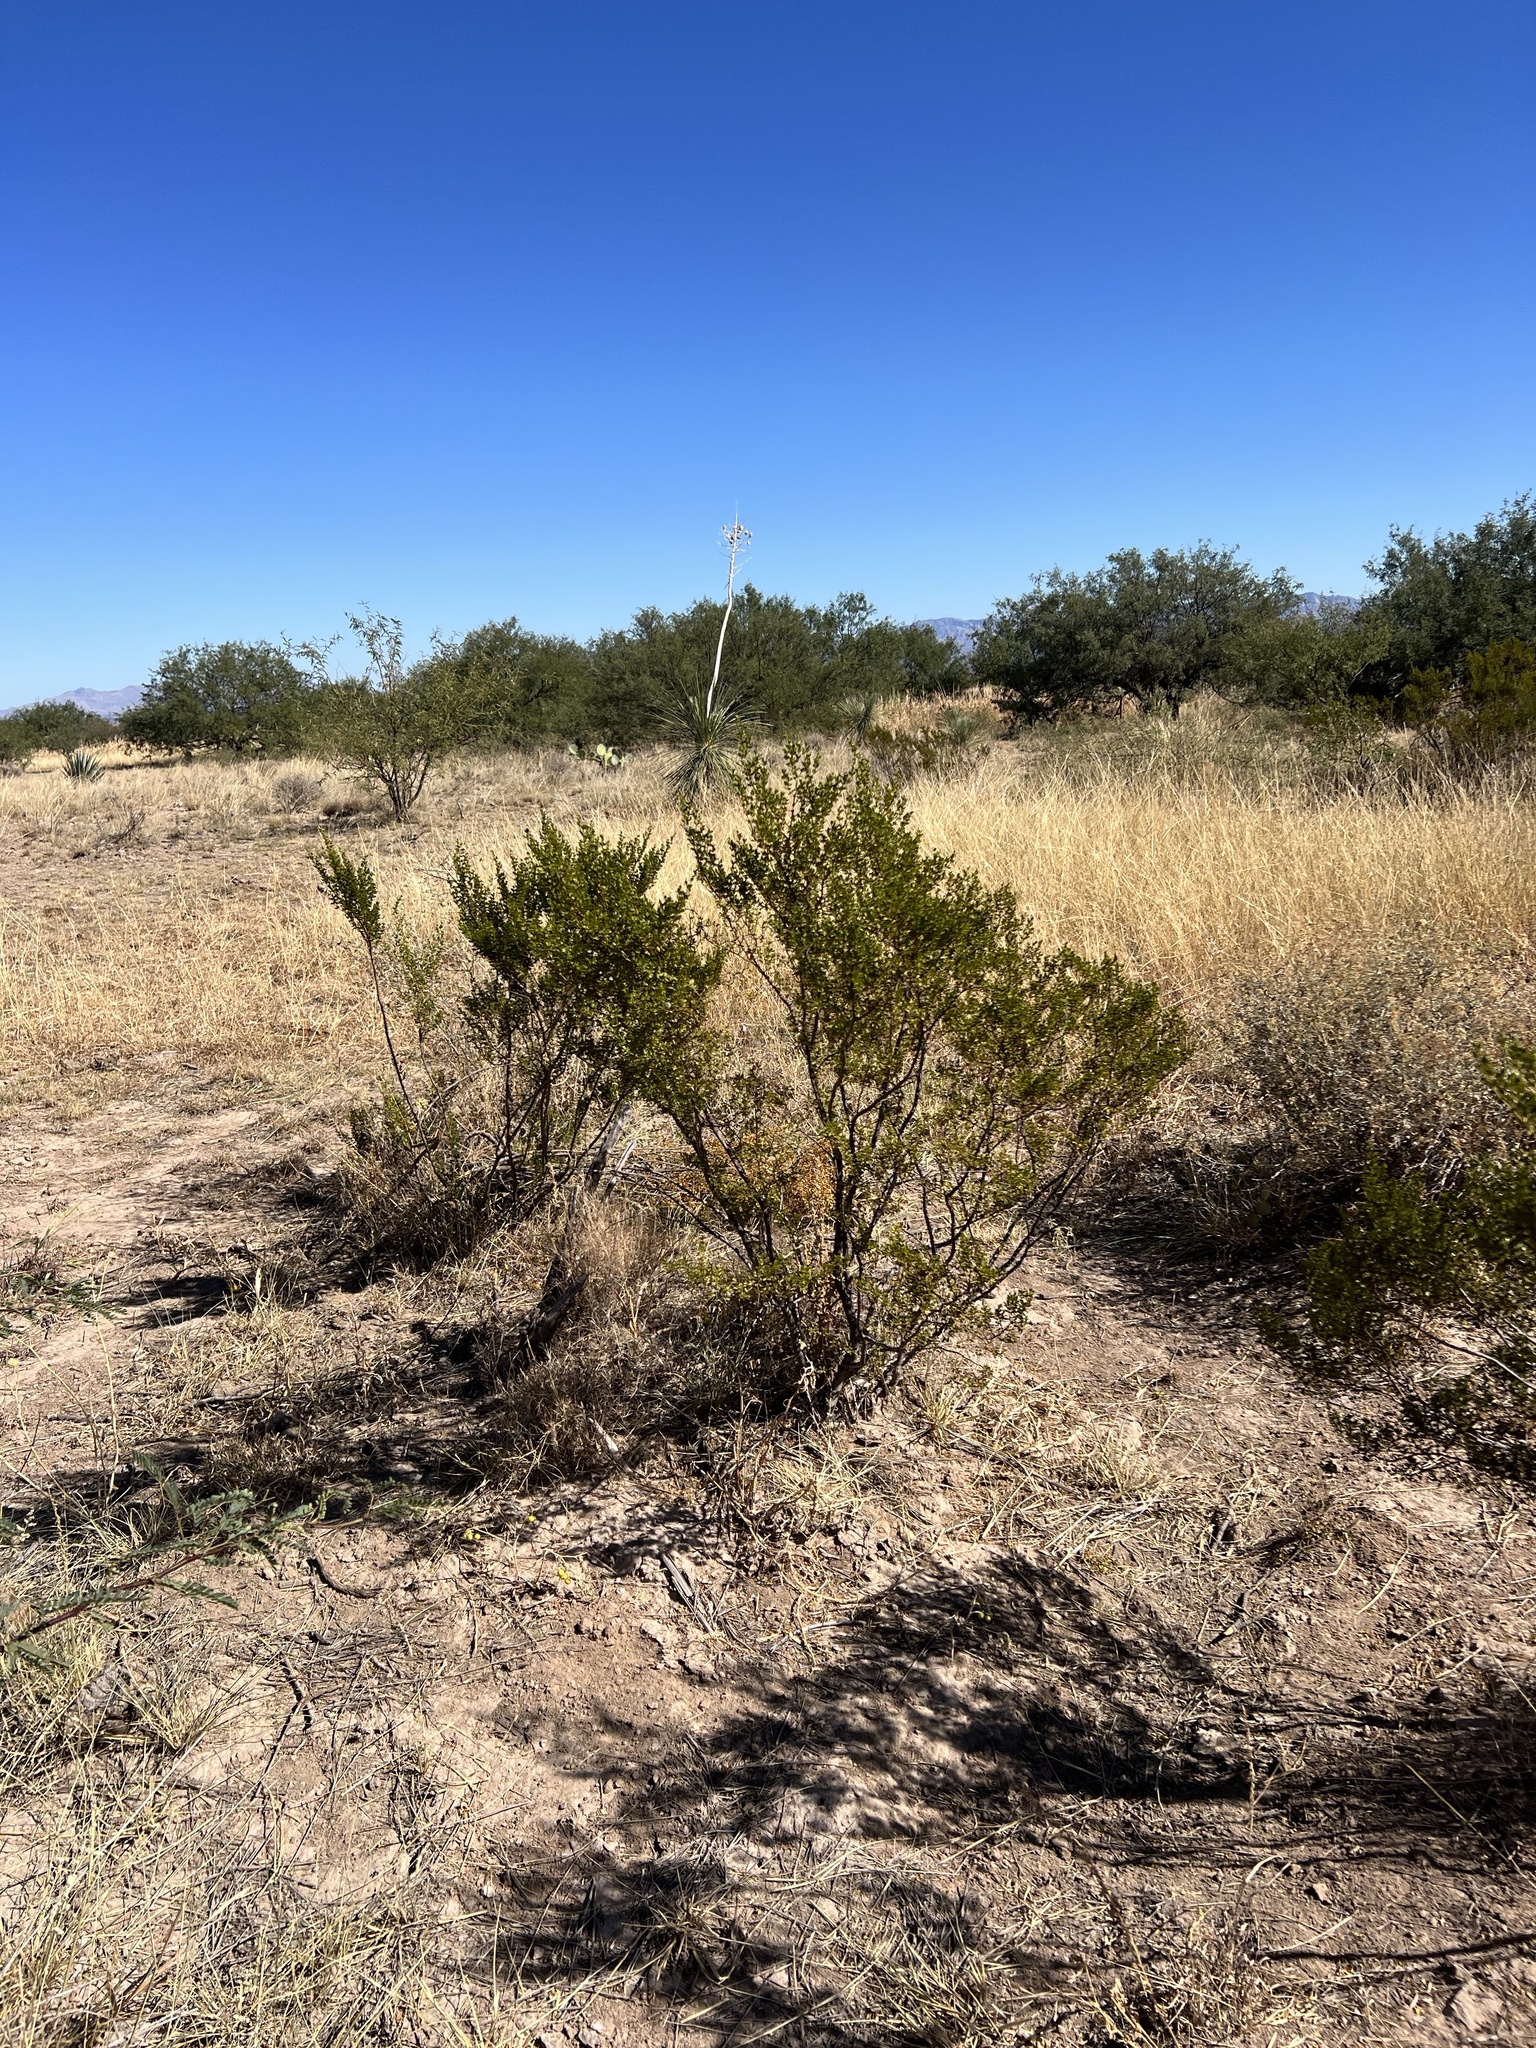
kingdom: Plantae
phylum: Tracheophyta
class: Magnoliopsida
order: Zygophyllales
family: Zygophyllaceae
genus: Larrea
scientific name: Larrea tridentata
